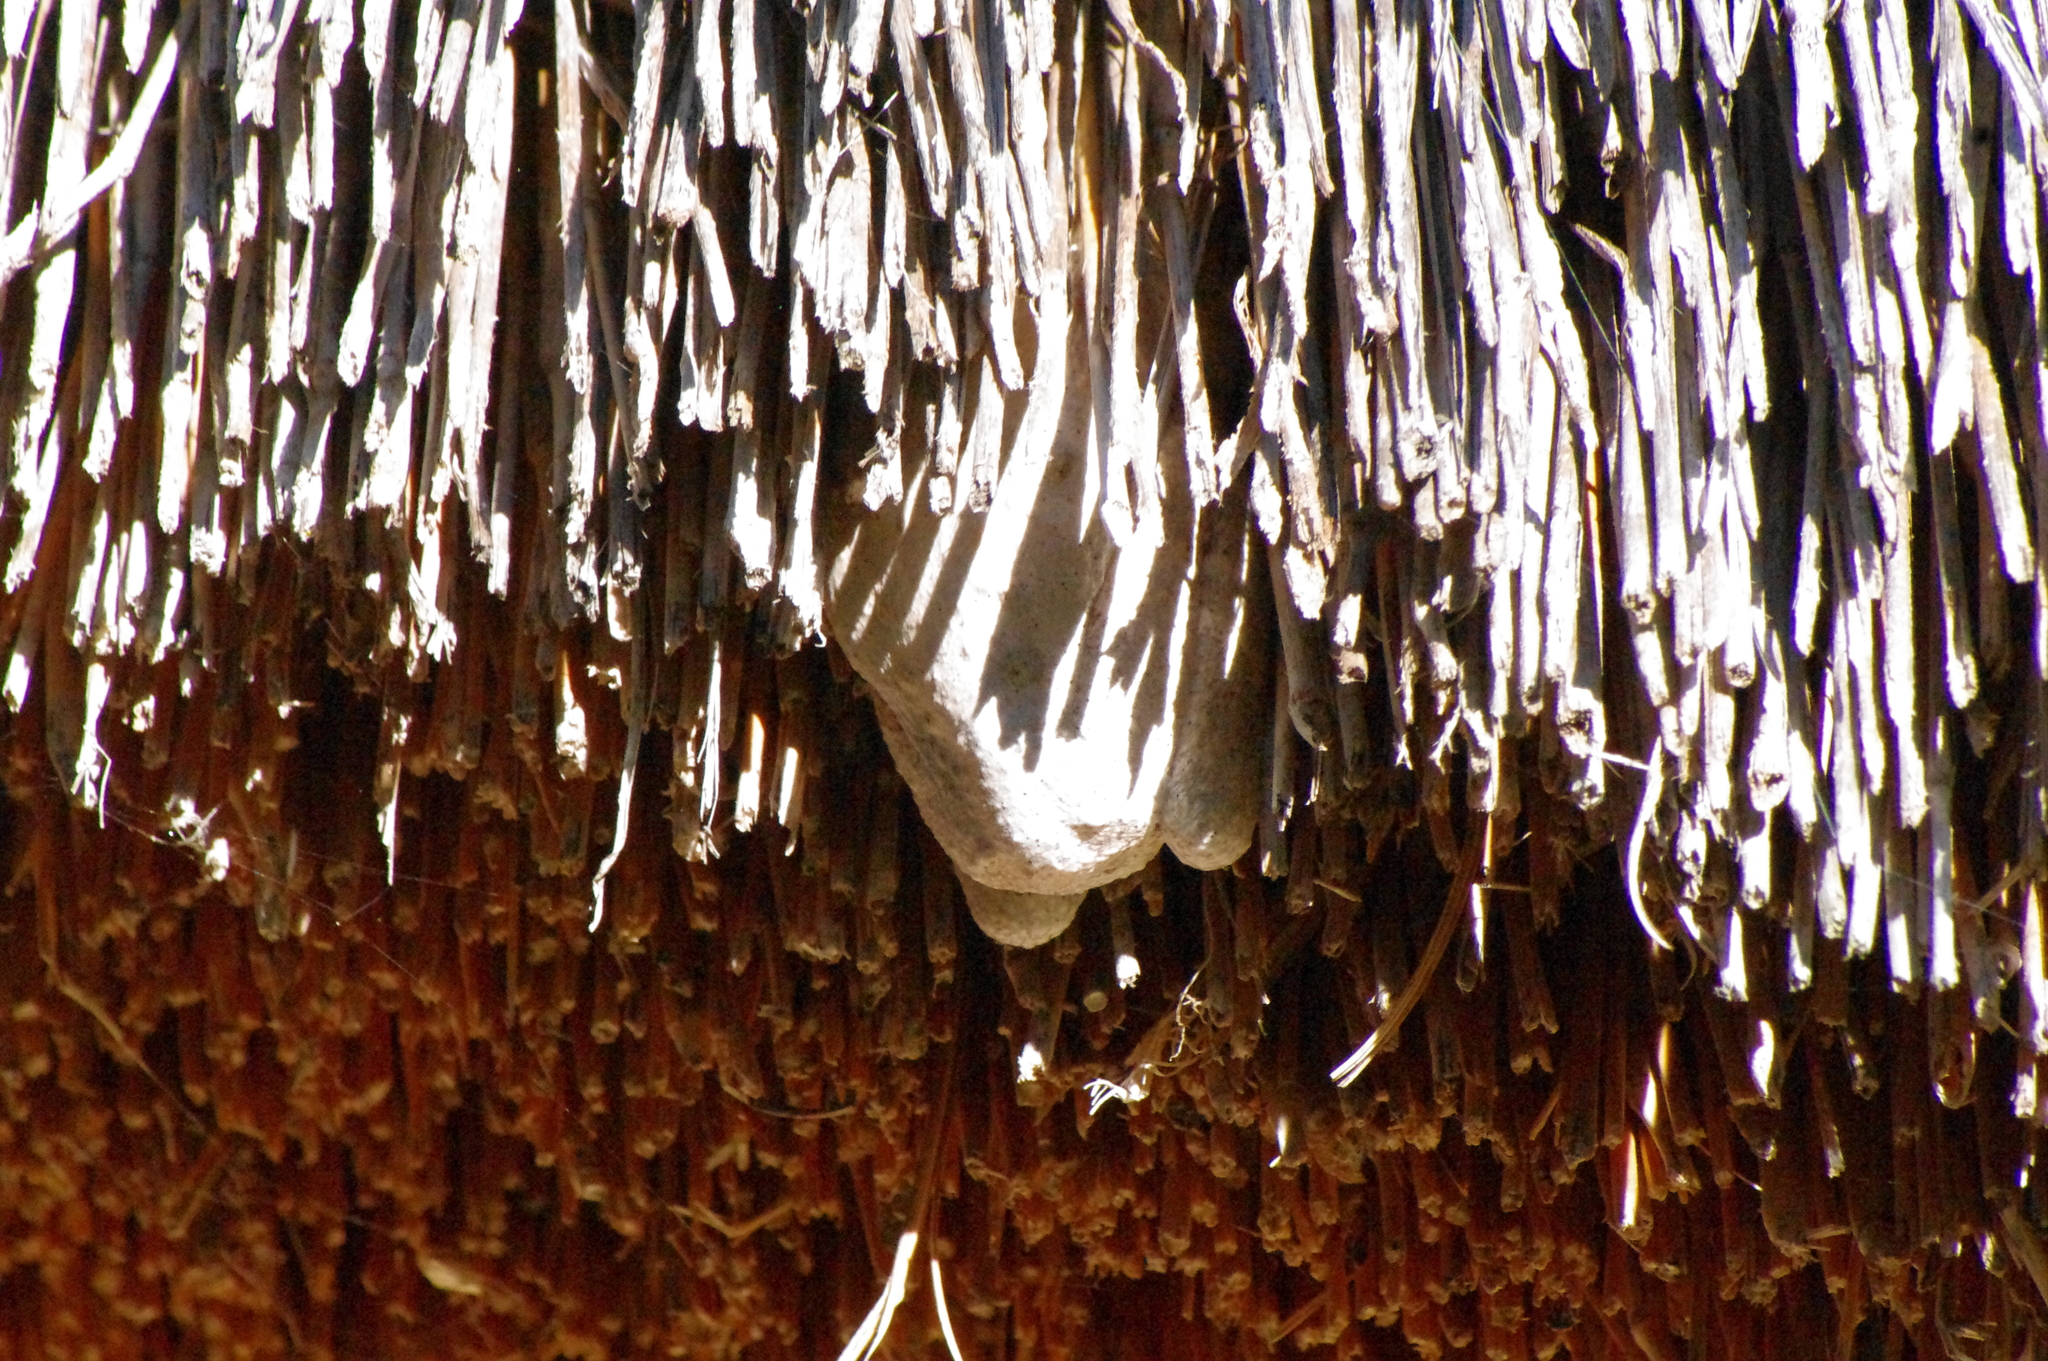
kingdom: Animalia
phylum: Chordata
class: Amphibia
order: Anura
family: Rhacophoridae
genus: Chiromantis
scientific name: Chiromantis xerampelina
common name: African gray treefrog
